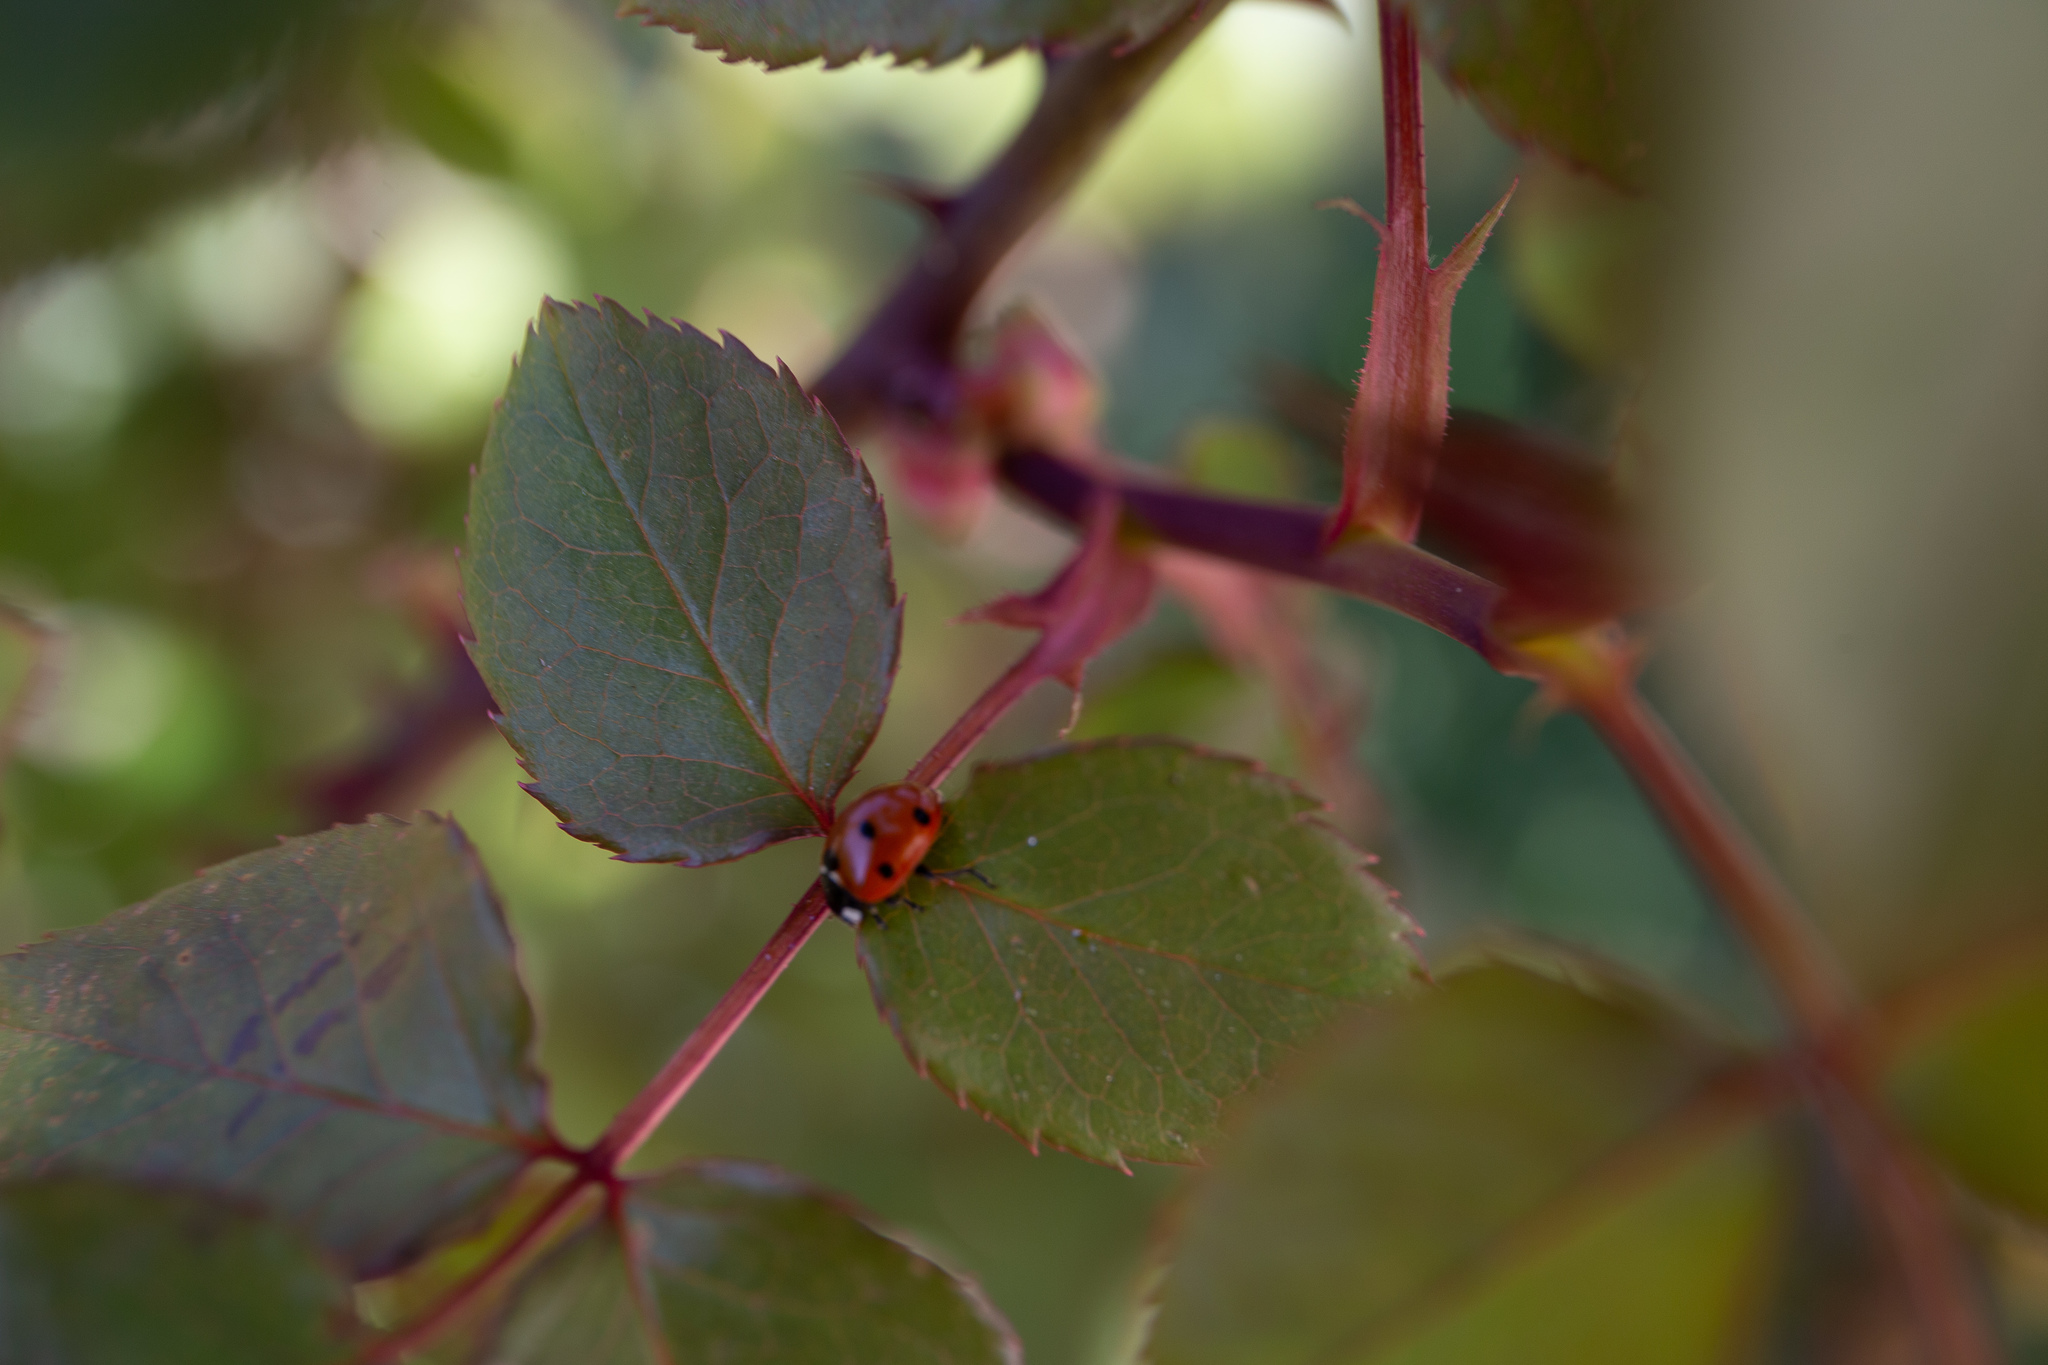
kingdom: Animalia
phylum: Arthropoda
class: Insecta
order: Coleoptera
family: Coccinellidae
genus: Coccinella
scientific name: Coccinella septempunctata
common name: Sevenspotted lady beetle
